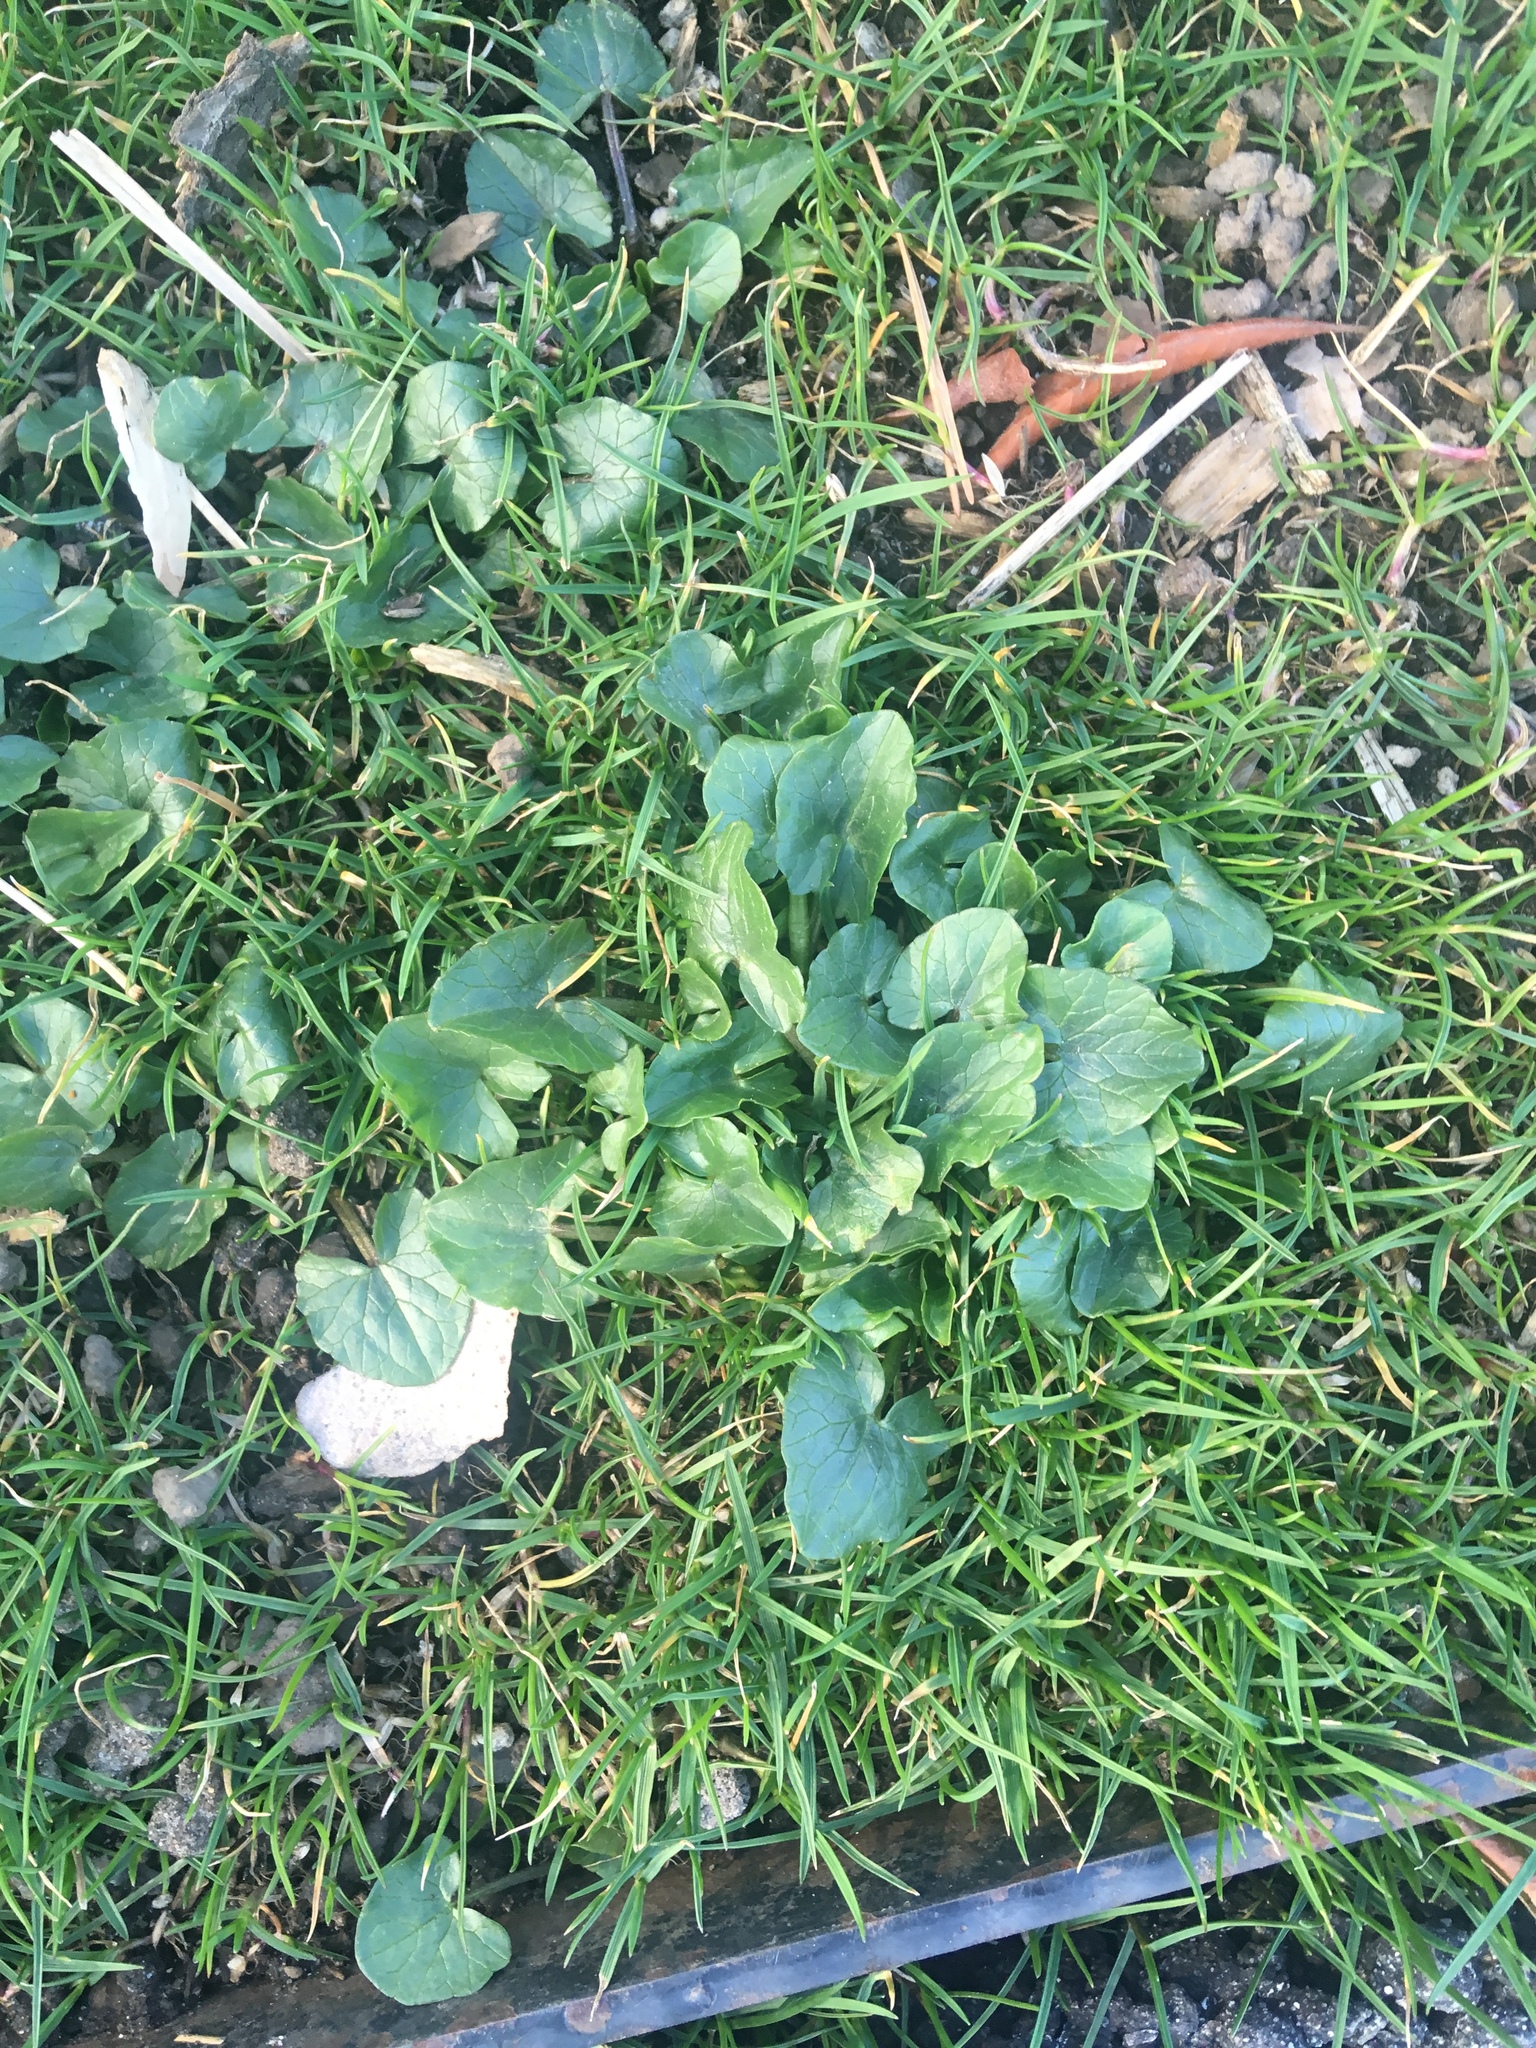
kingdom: Plantae
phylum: Tracheophyta
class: Magnoliopsida
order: Ranunculales
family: Ranunculaceae
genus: Ficaria
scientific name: Ficaria verna
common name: Lesser celandine
